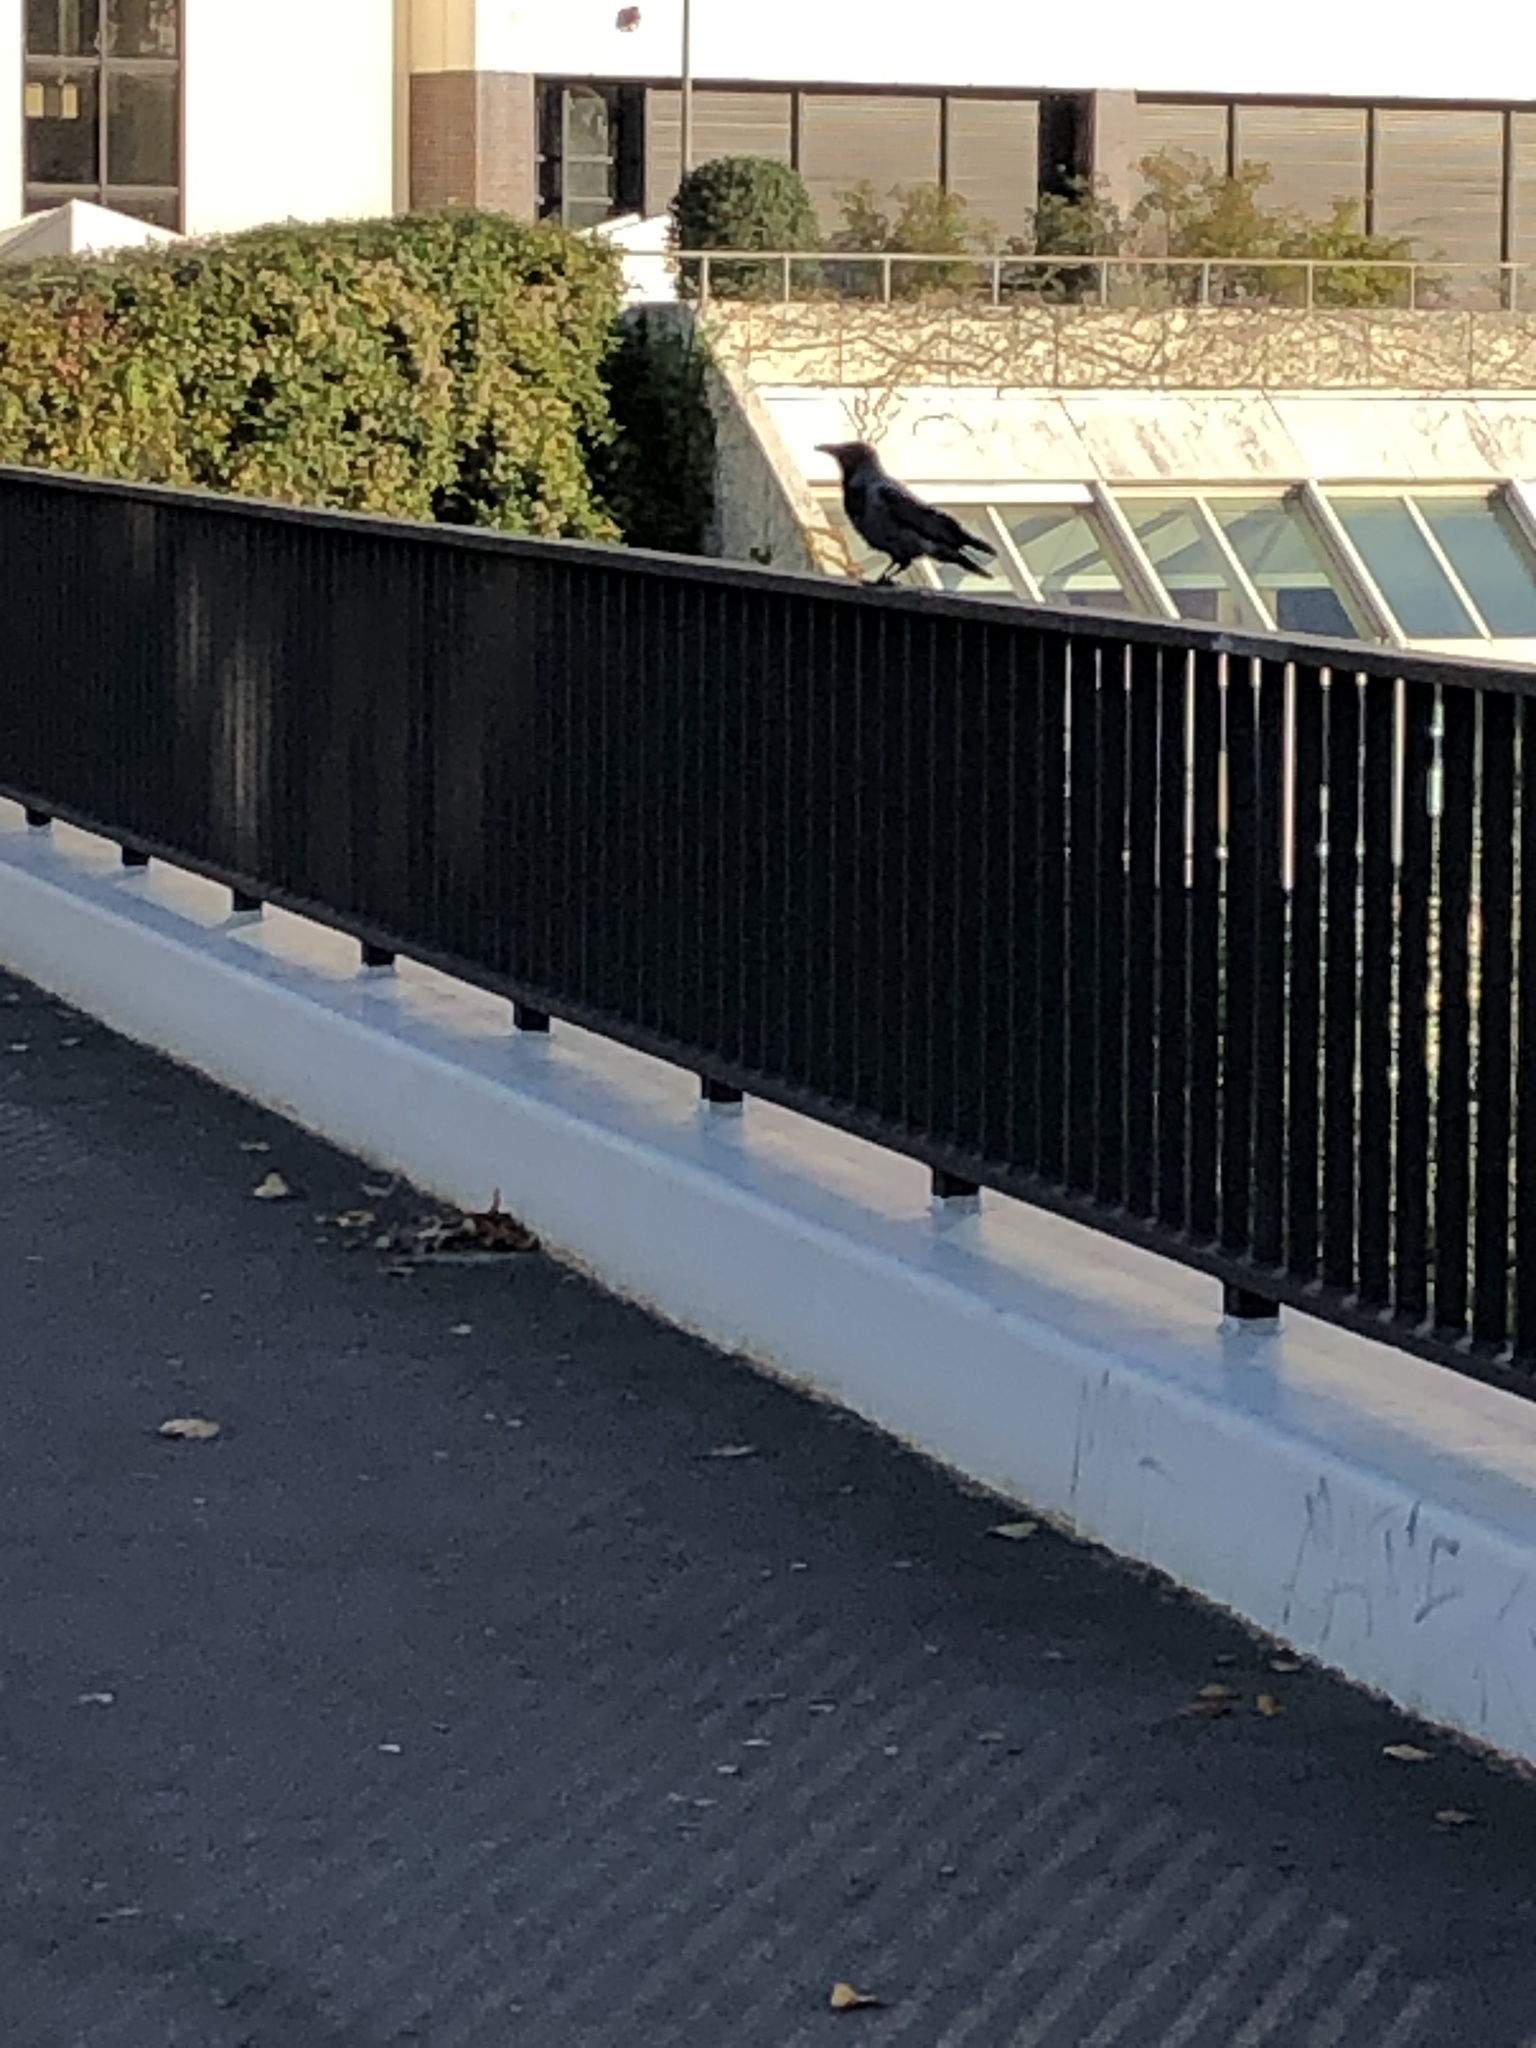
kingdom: Animalia
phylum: Chordata
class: Aves
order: Passeriformes
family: Corvidae
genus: Corvus
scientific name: Corvus cornix
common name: Hooded crow
